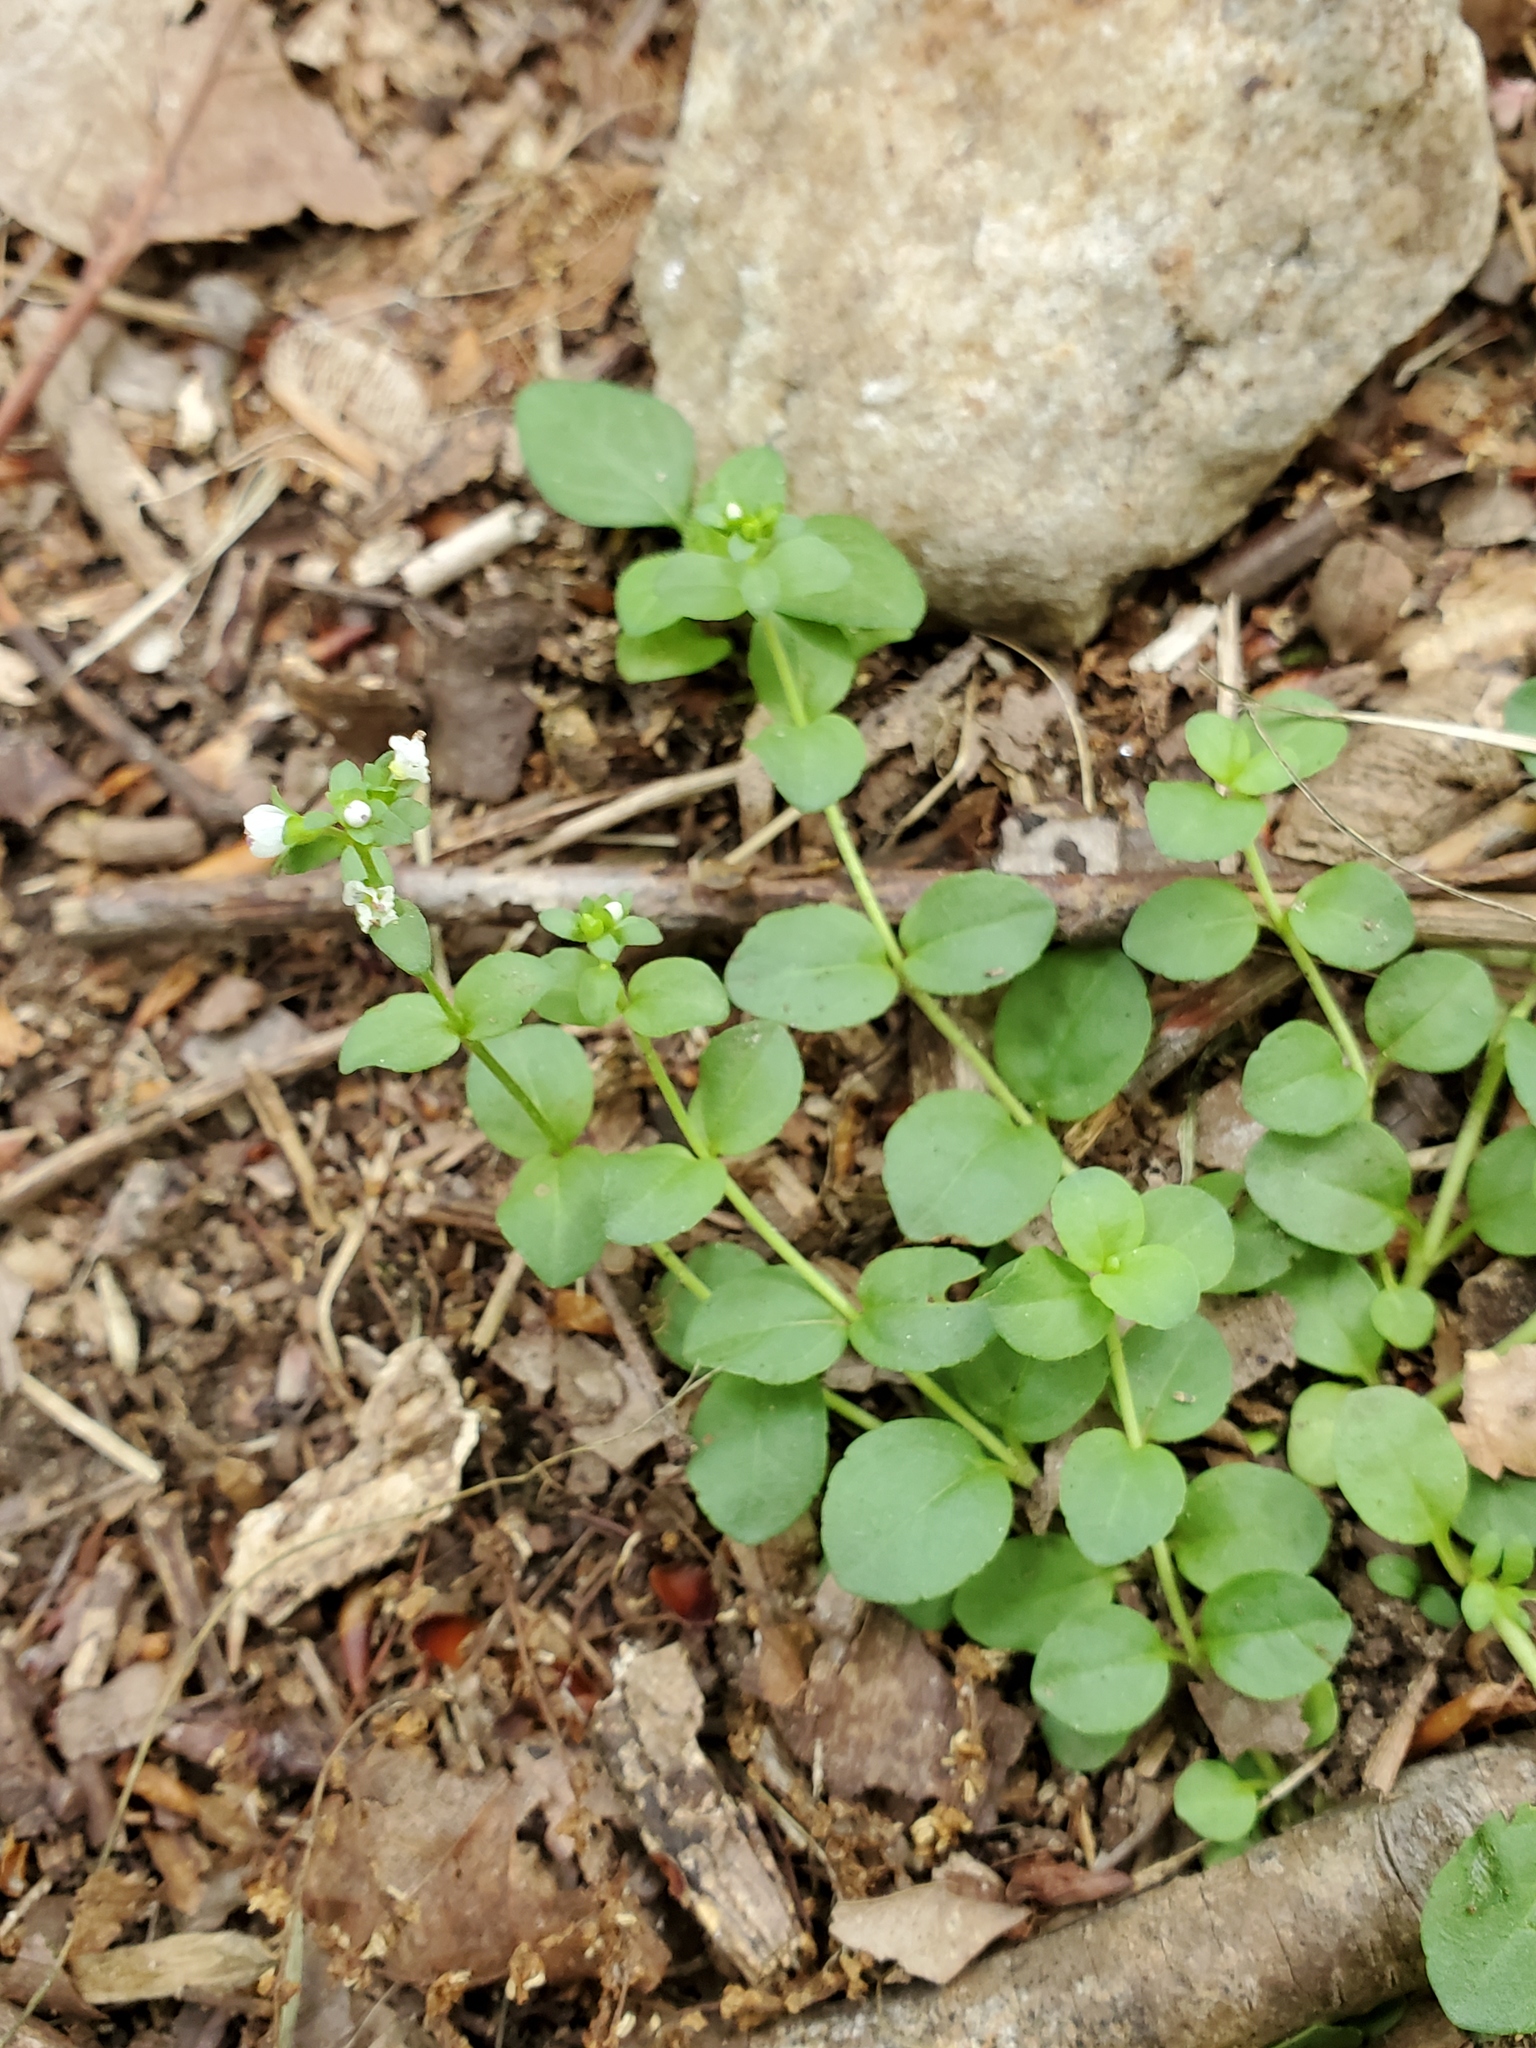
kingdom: Plantae
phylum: Tracheophyta
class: Magnoliopsida
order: Lamiales
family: Plantaginaceae
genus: Veronica
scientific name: Veronica serpyllifolia
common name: Thyme-leaved speedwell
